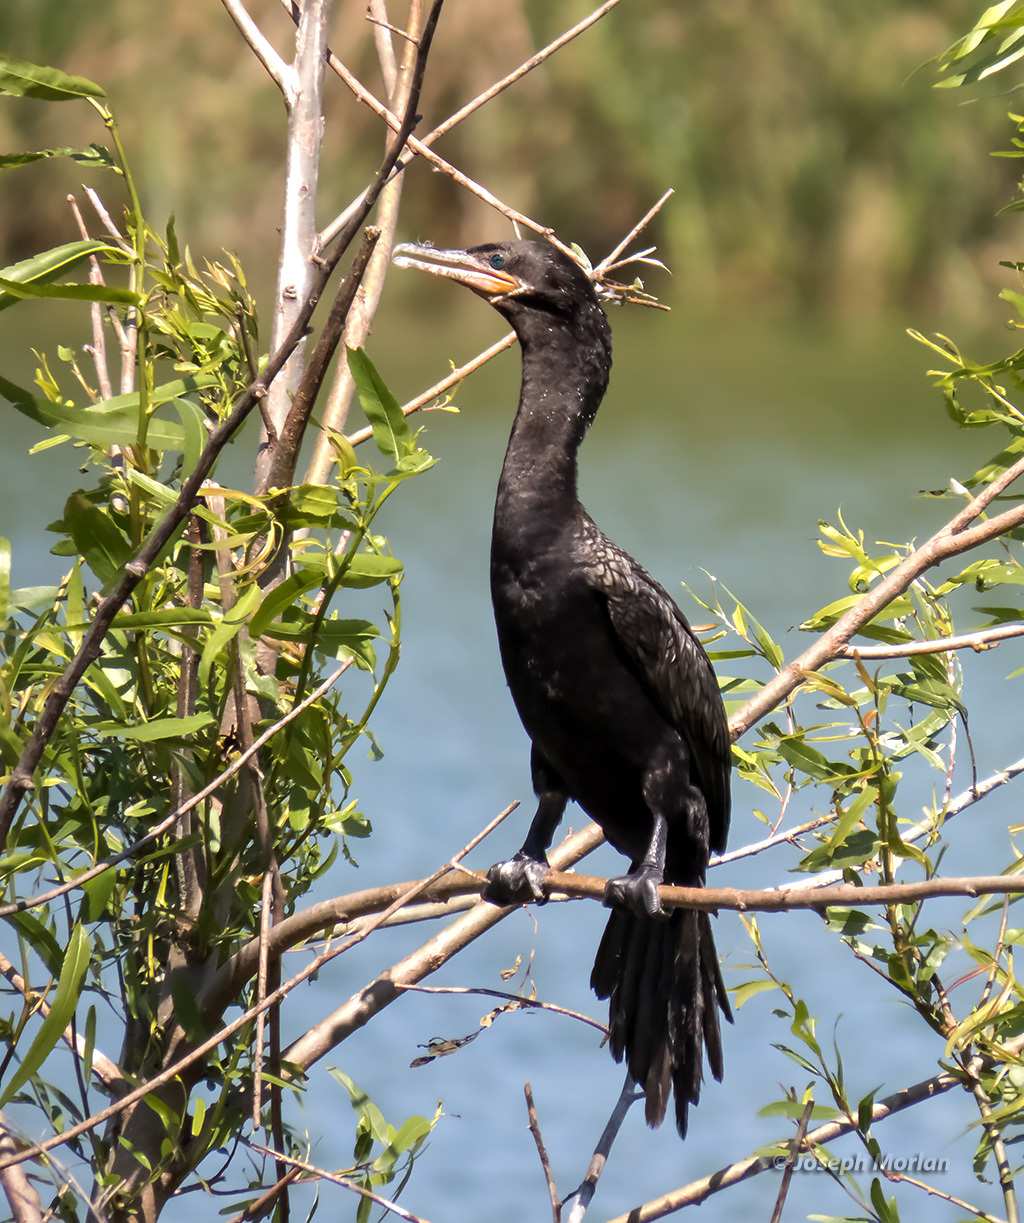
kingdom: Animalia
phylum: Chordata
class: Aves
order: Suliformes
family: Phalacrocoracidae
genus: Phalacrocorax
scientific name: Phalacrocorax brasilianus
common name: Neotropic cormorant
